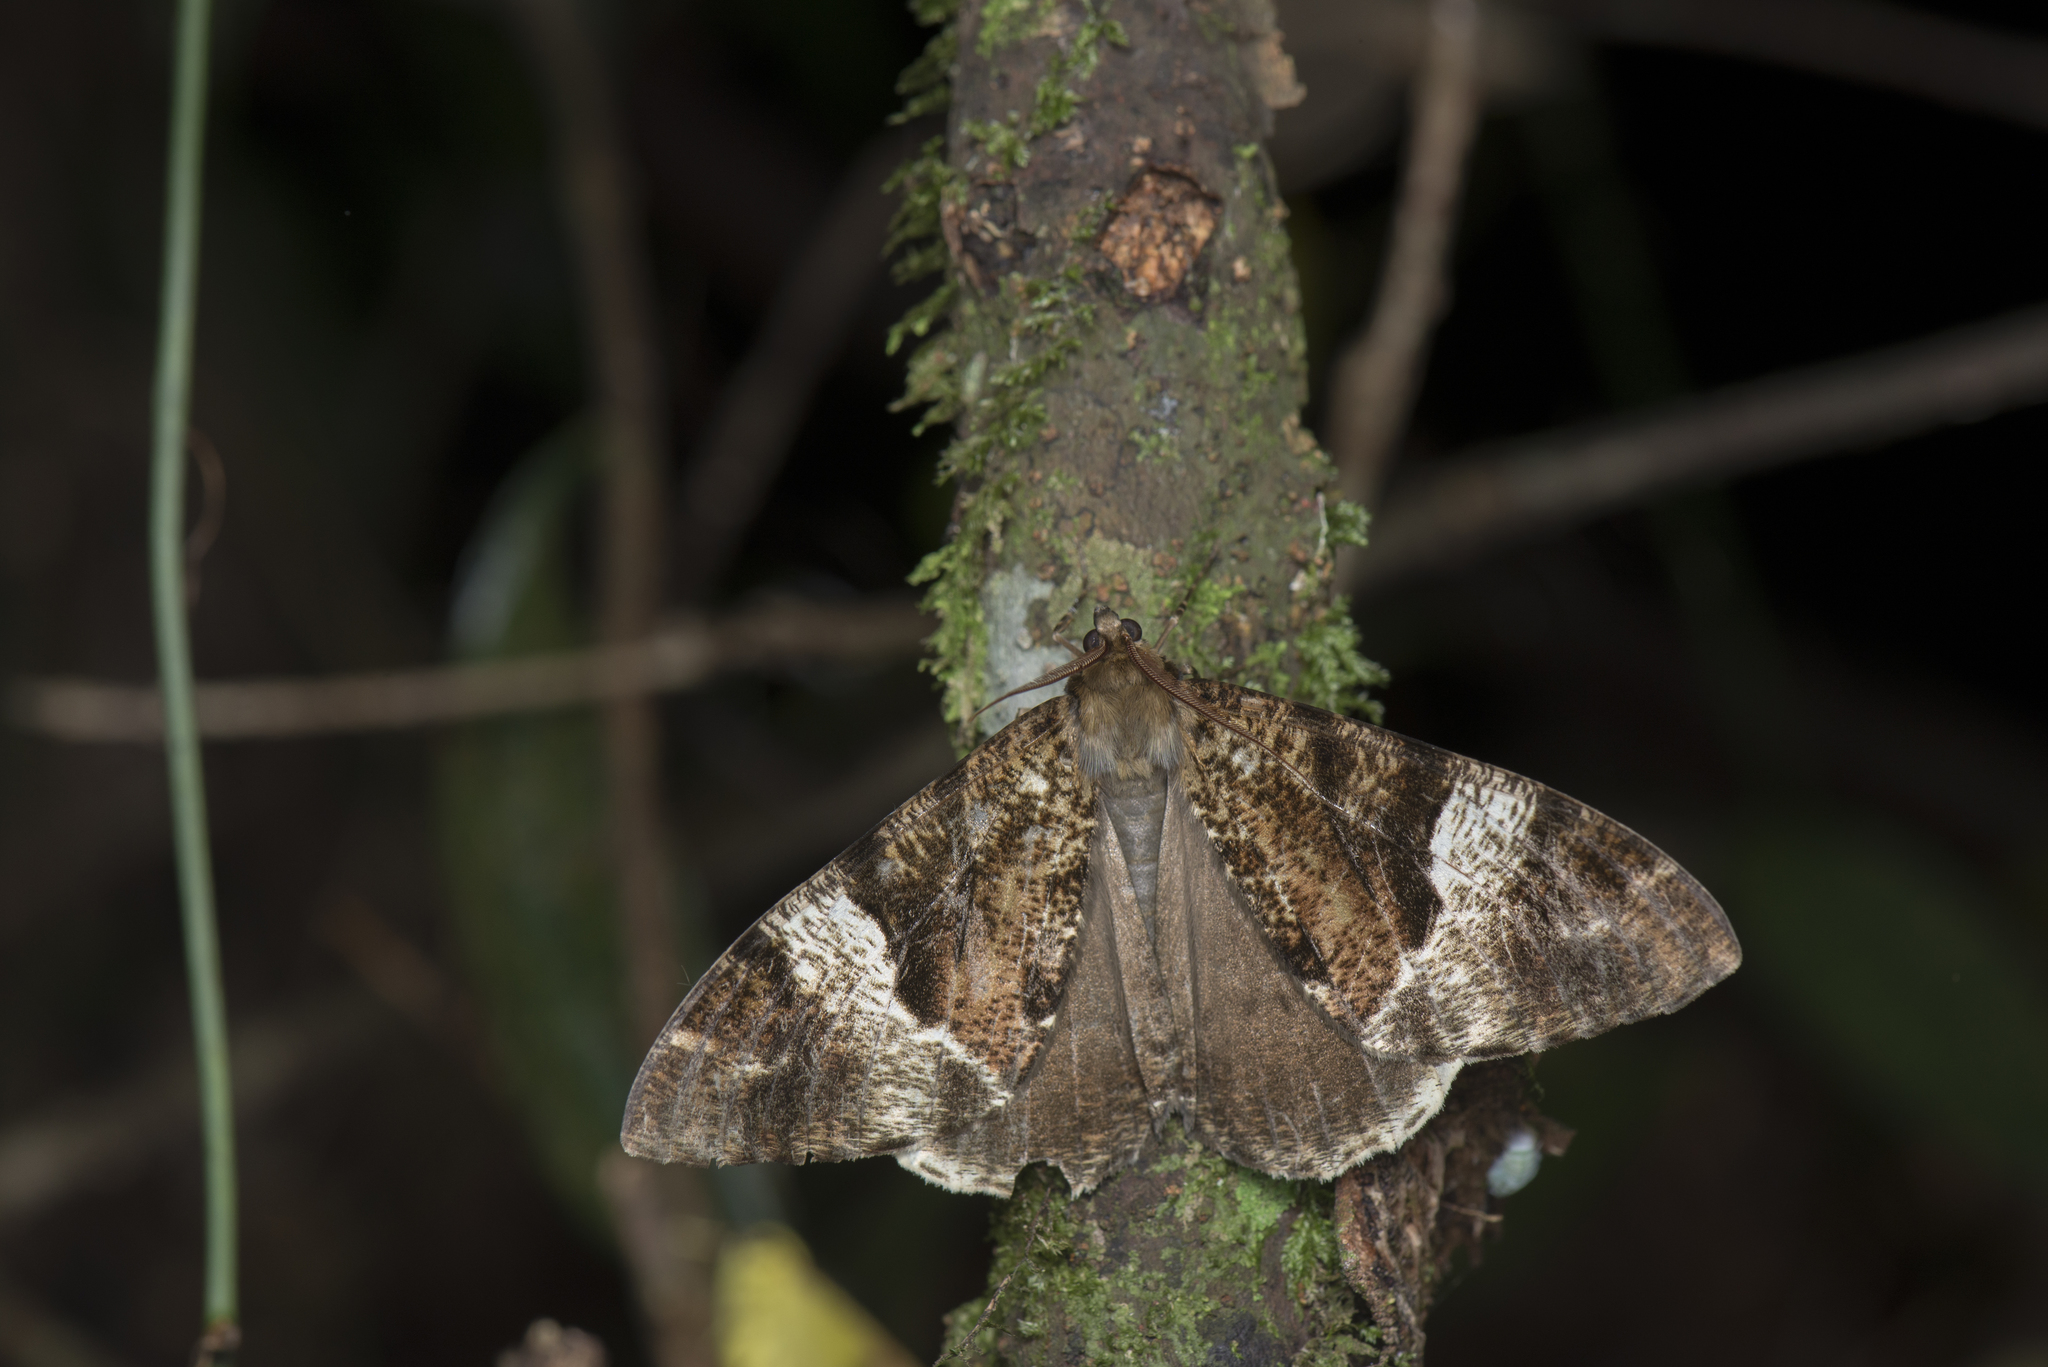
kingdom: Animalia
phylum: Arthropoda
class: Insecta
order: Lepidoptera
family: Geometridae
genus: Xandrames
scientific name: Xandrames dholaria
